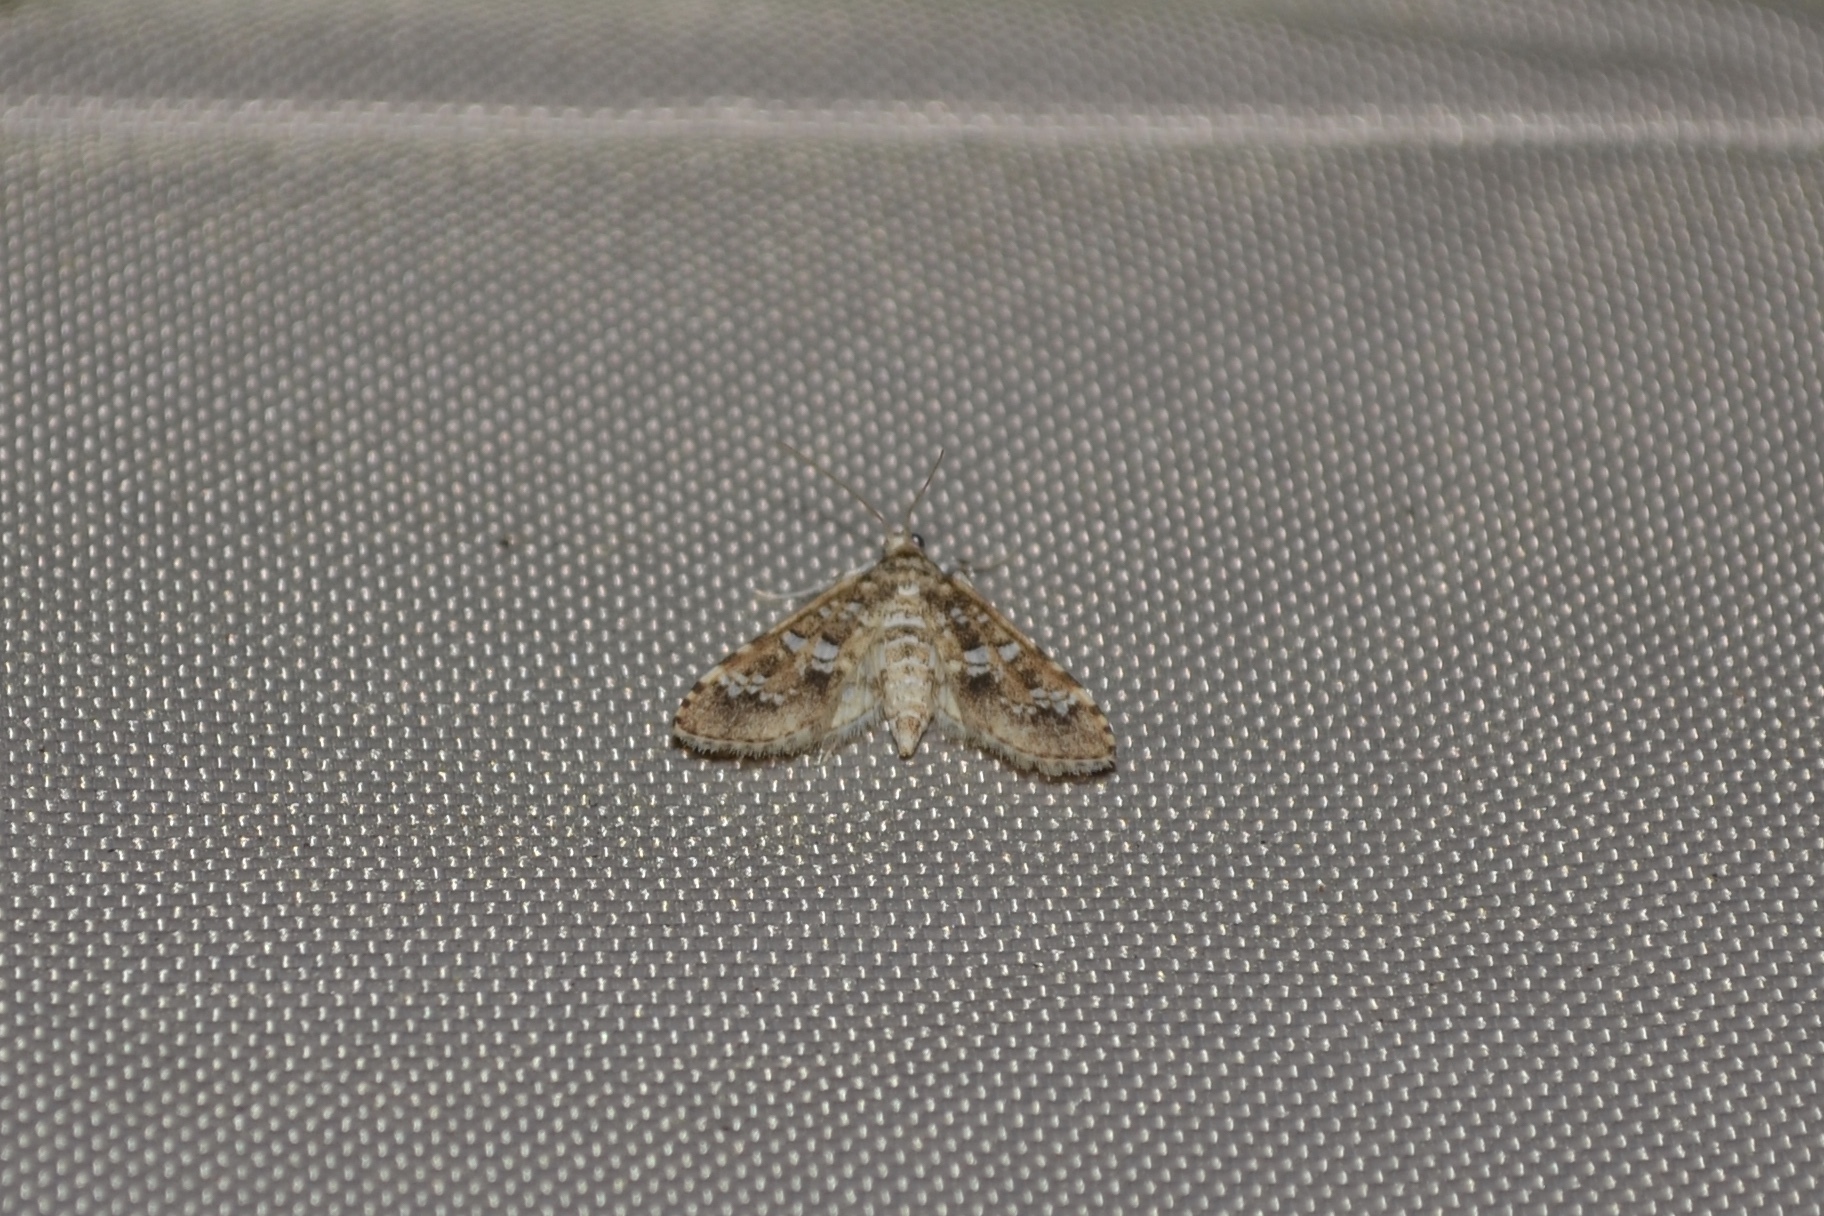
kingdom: Animalia
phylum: Arthropoda
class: Insecta
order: Lepidoptera
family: Crambidae
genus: Samea
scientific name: Samea multiplicalis
